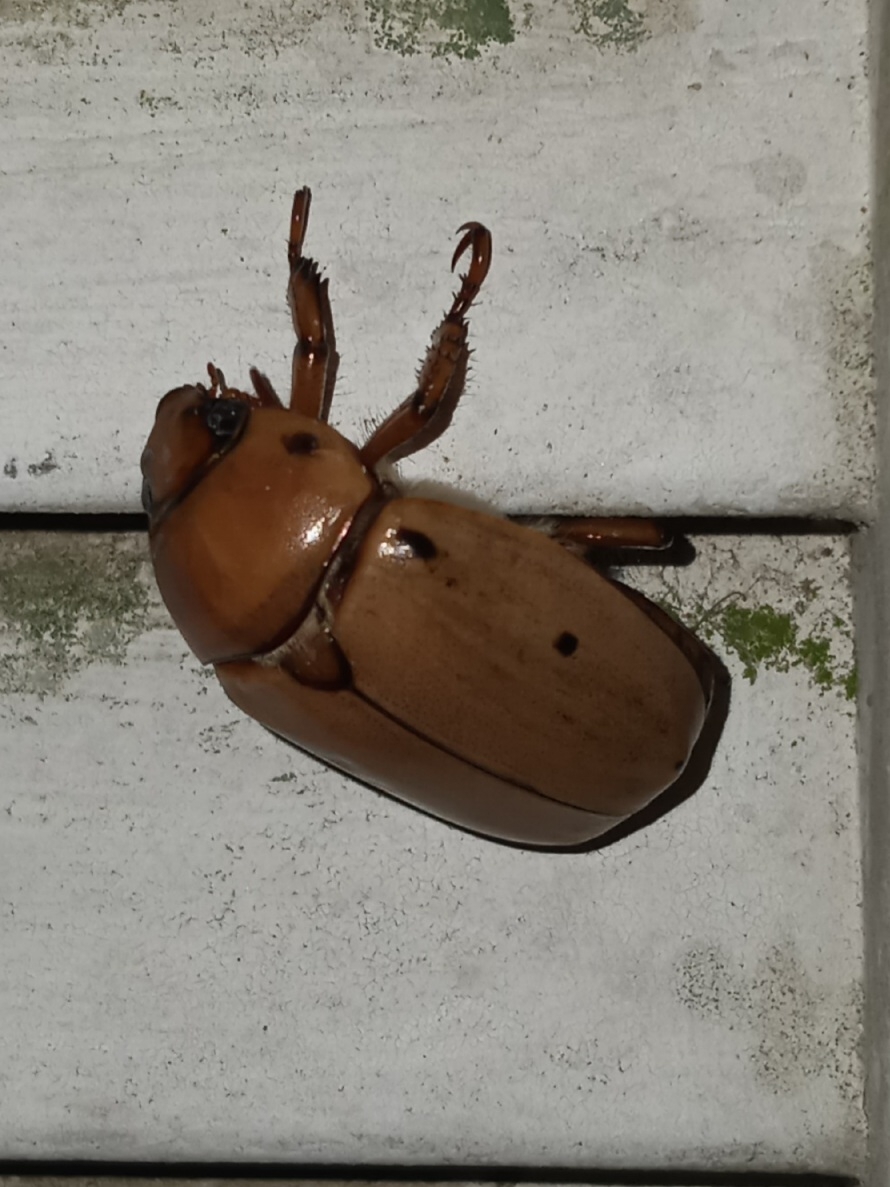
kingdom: Animalia
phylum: Arthropoda
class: Insecta
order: Coleoptera
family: Scarabaeidae
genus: Pelidnota
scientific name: Pelidnota punctata
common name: Grapevine beetle
